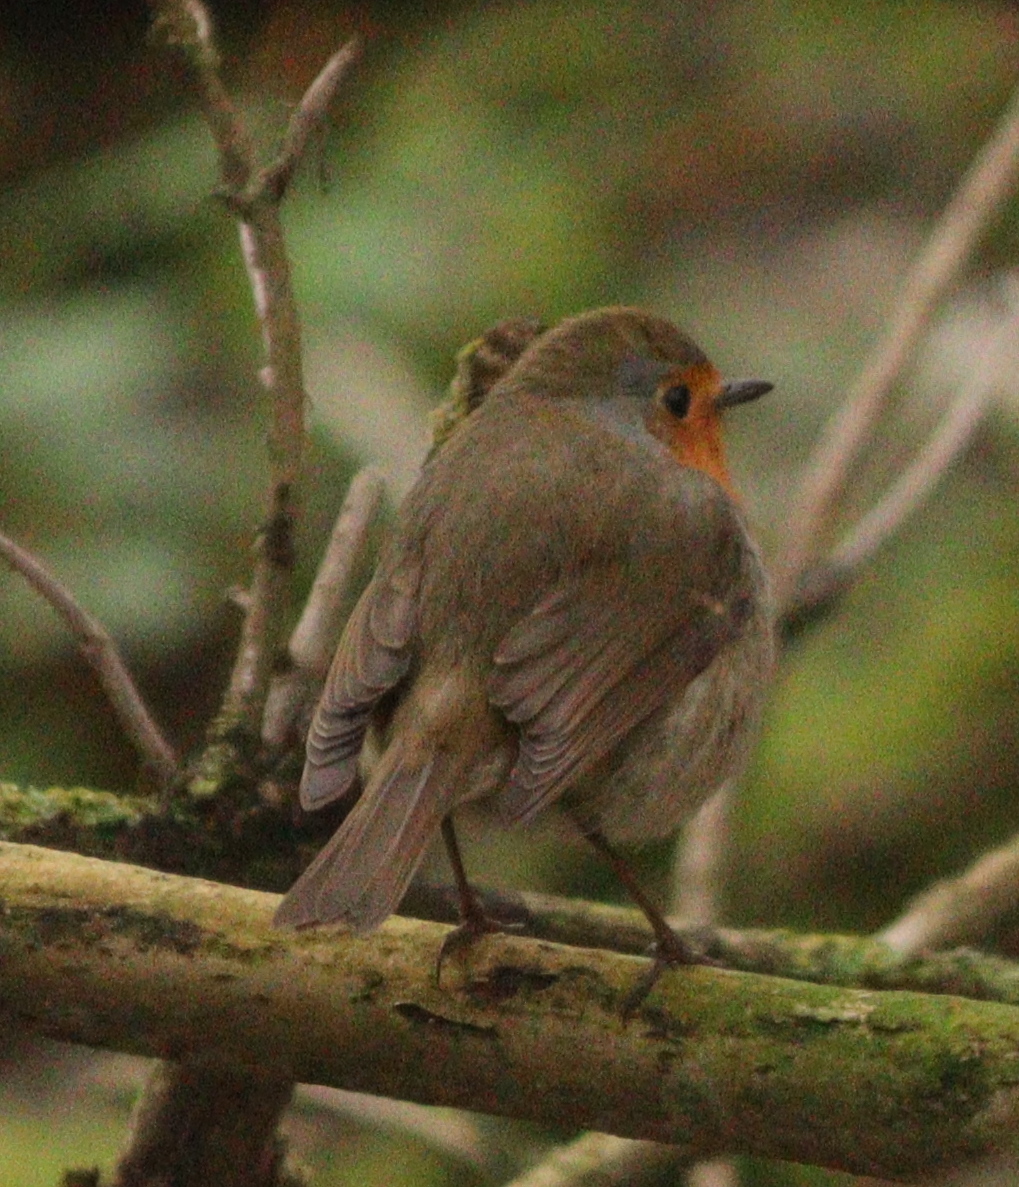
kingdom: Animalia
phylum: Chordata
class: Aves
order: Passeriformes
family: Muscicapidae
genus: Erithacus
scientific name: Erithacus rubecula
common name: European robin
